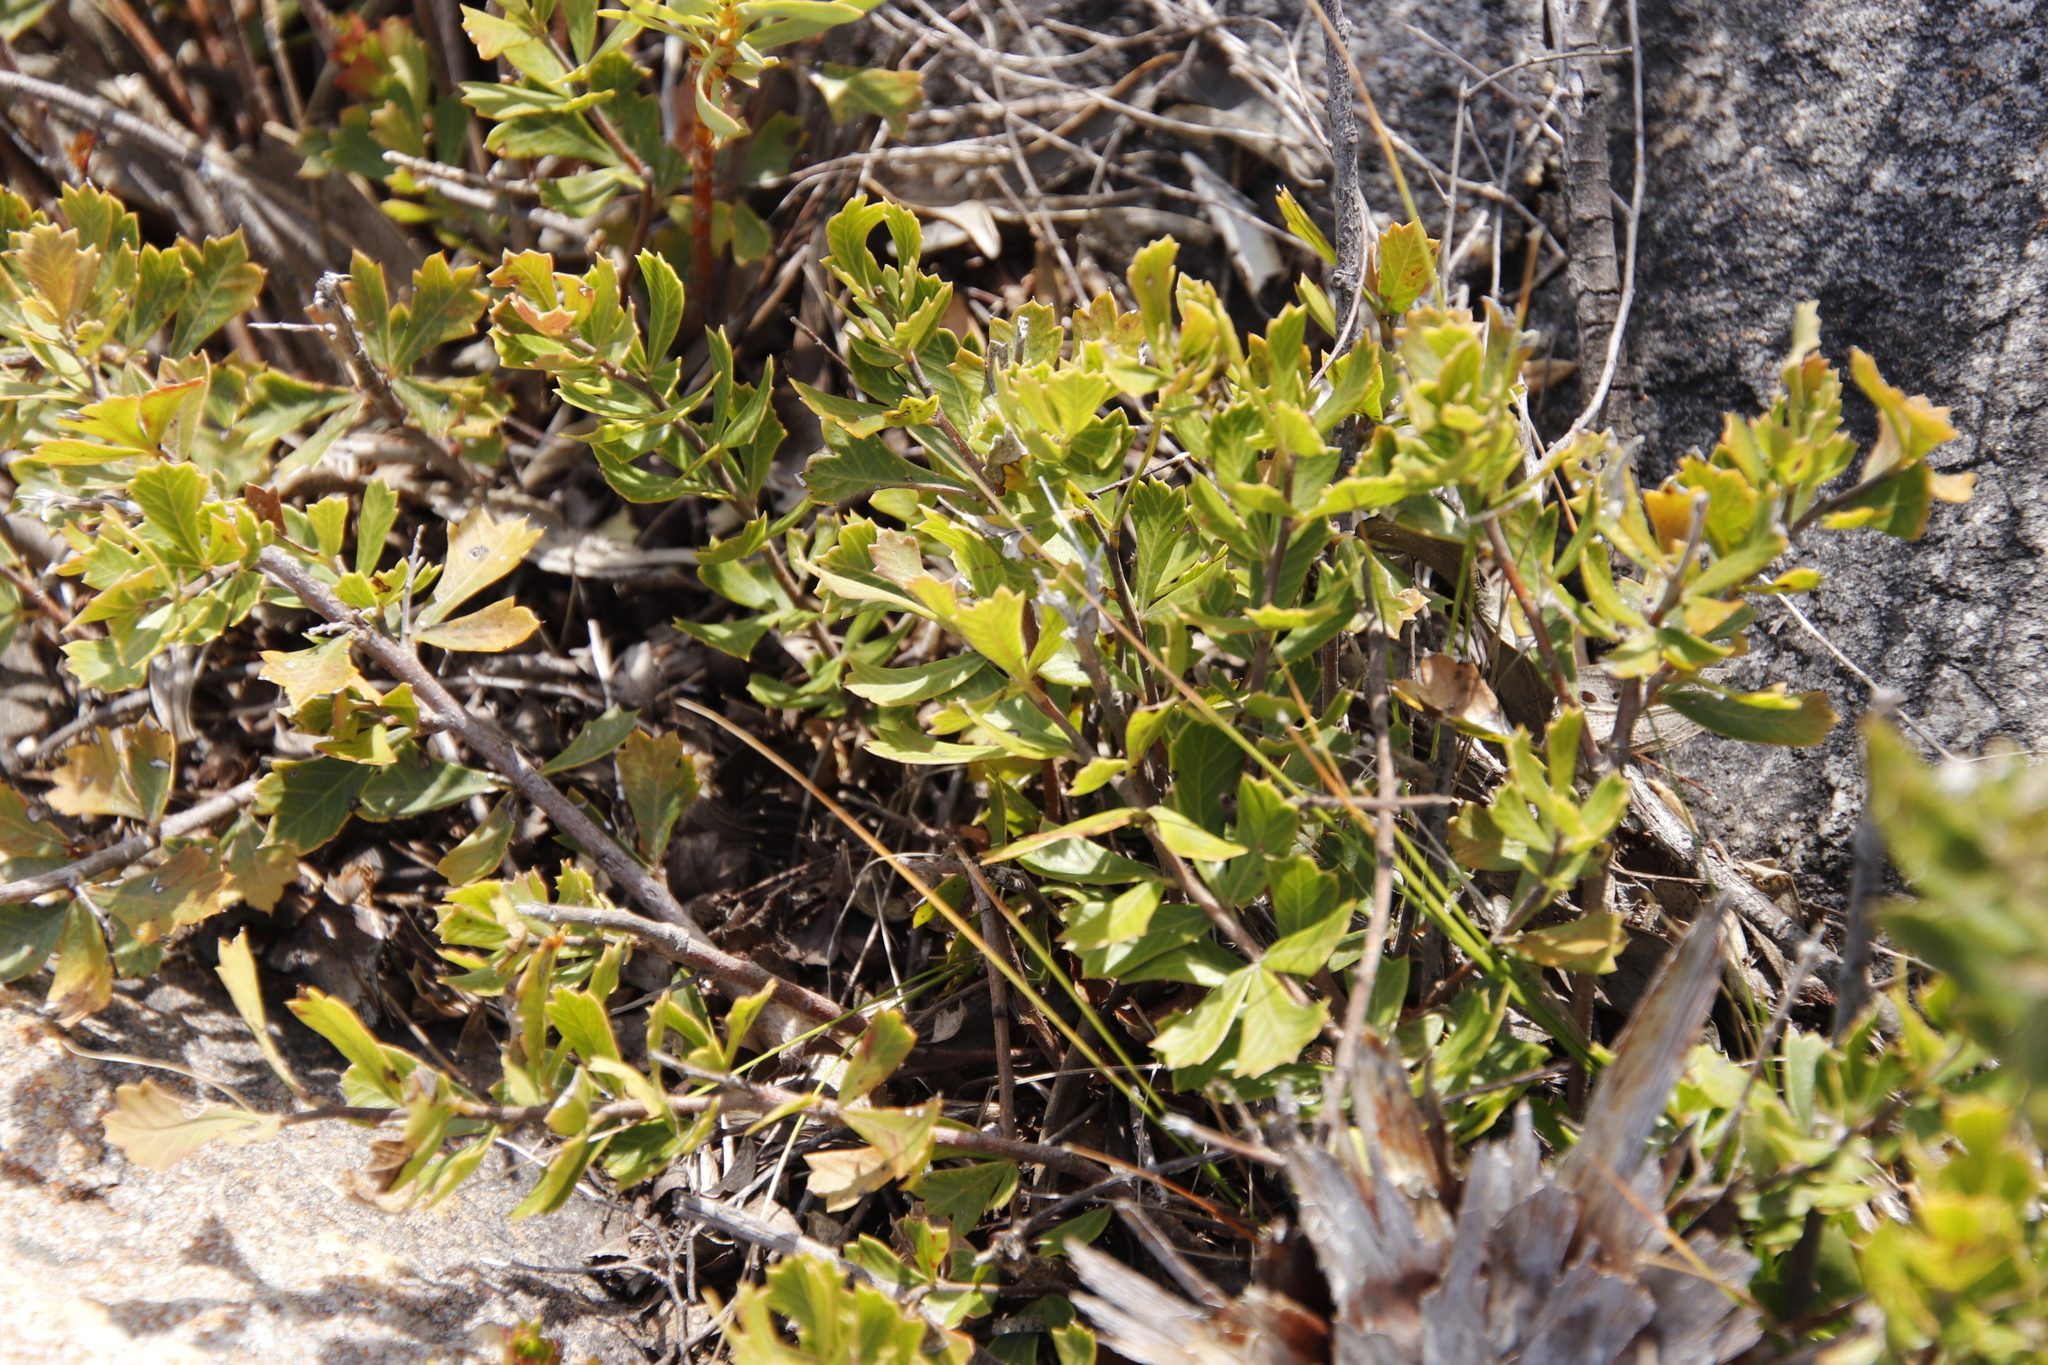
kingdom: Plantae
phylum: Tracheophyta
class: Magnoliopsida
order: Sapindales
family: Anacardiaceae
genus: Searsia
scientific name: Searsia cuneifolia
